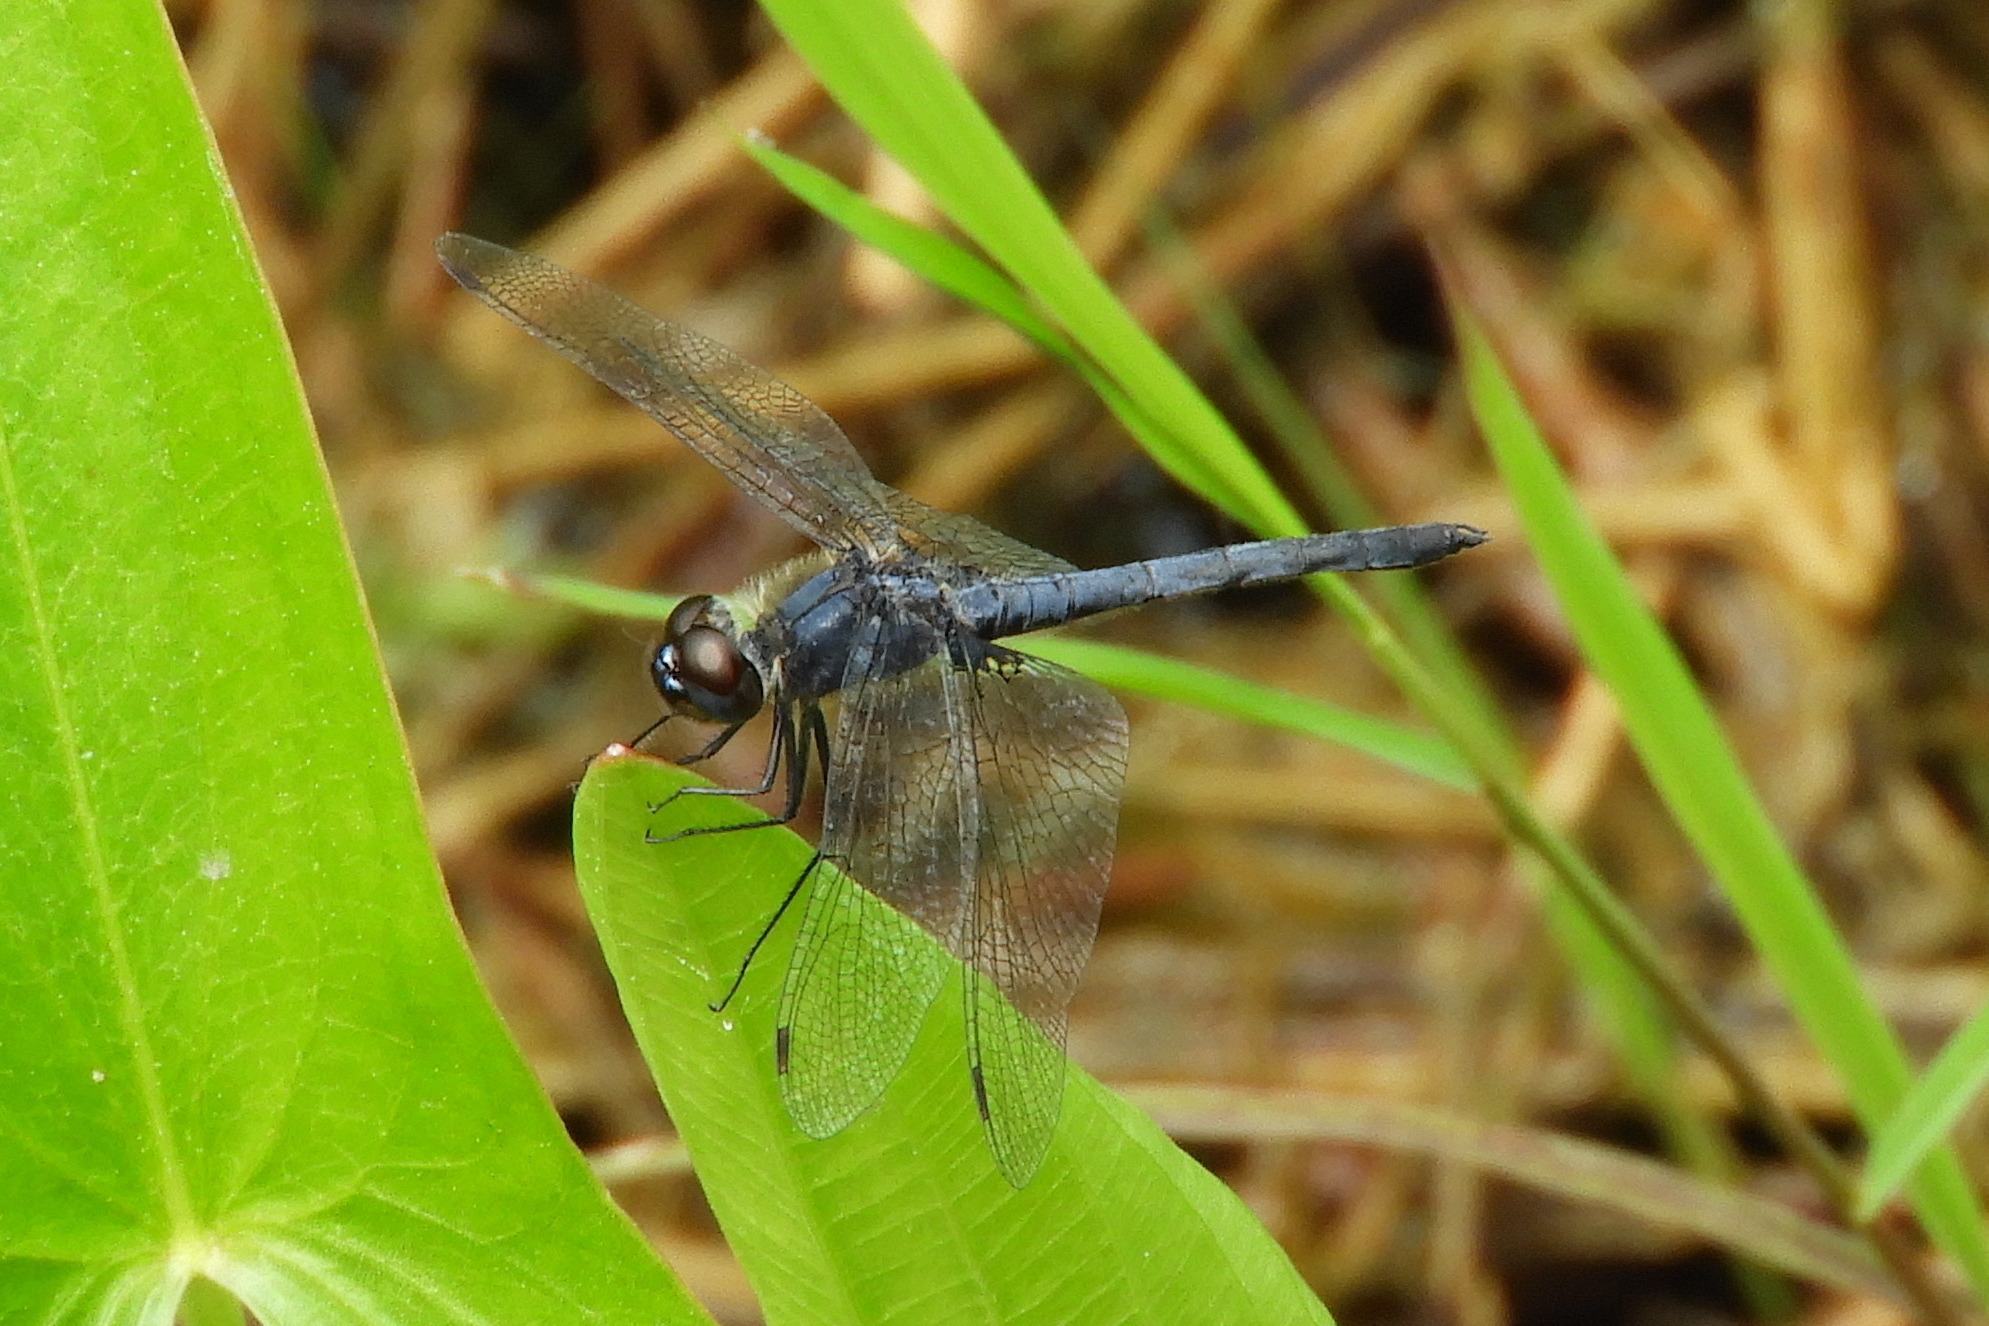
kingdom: Animalia
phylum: Arthropoda
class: Insecta
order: Odonata
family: Libellulidae
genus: Celithemis
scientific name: Celithemis verna
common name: Double-ringed pennant
